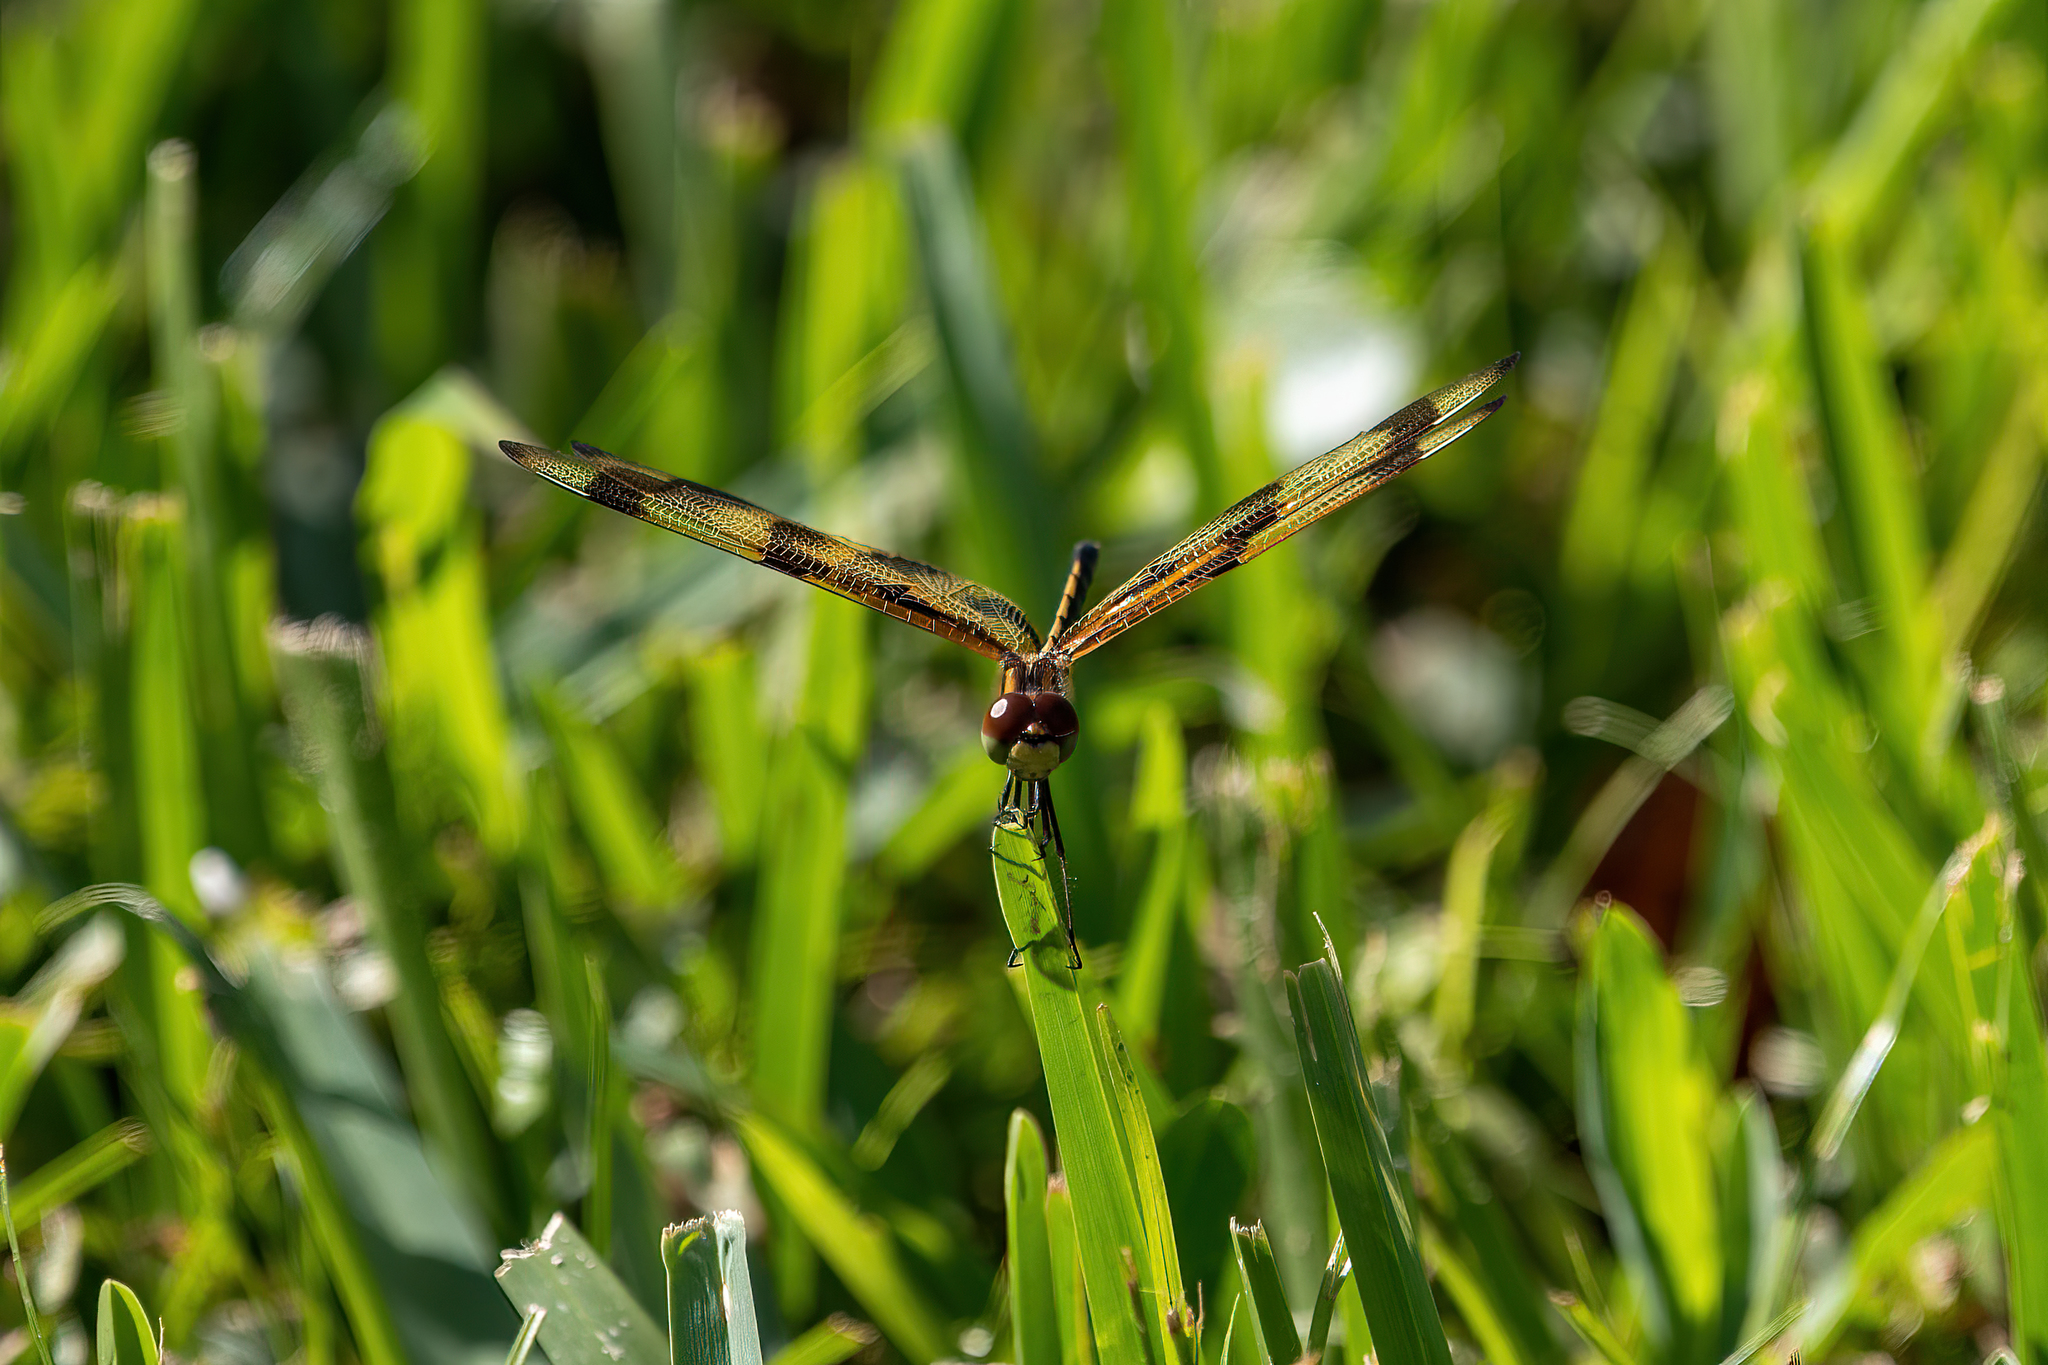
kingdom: Animalia
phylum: Arthropoda
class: Insecta
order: Odonata
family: Libellulidae
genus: Celithemis
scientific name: Celithemis eponina
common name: Halloween pennant
